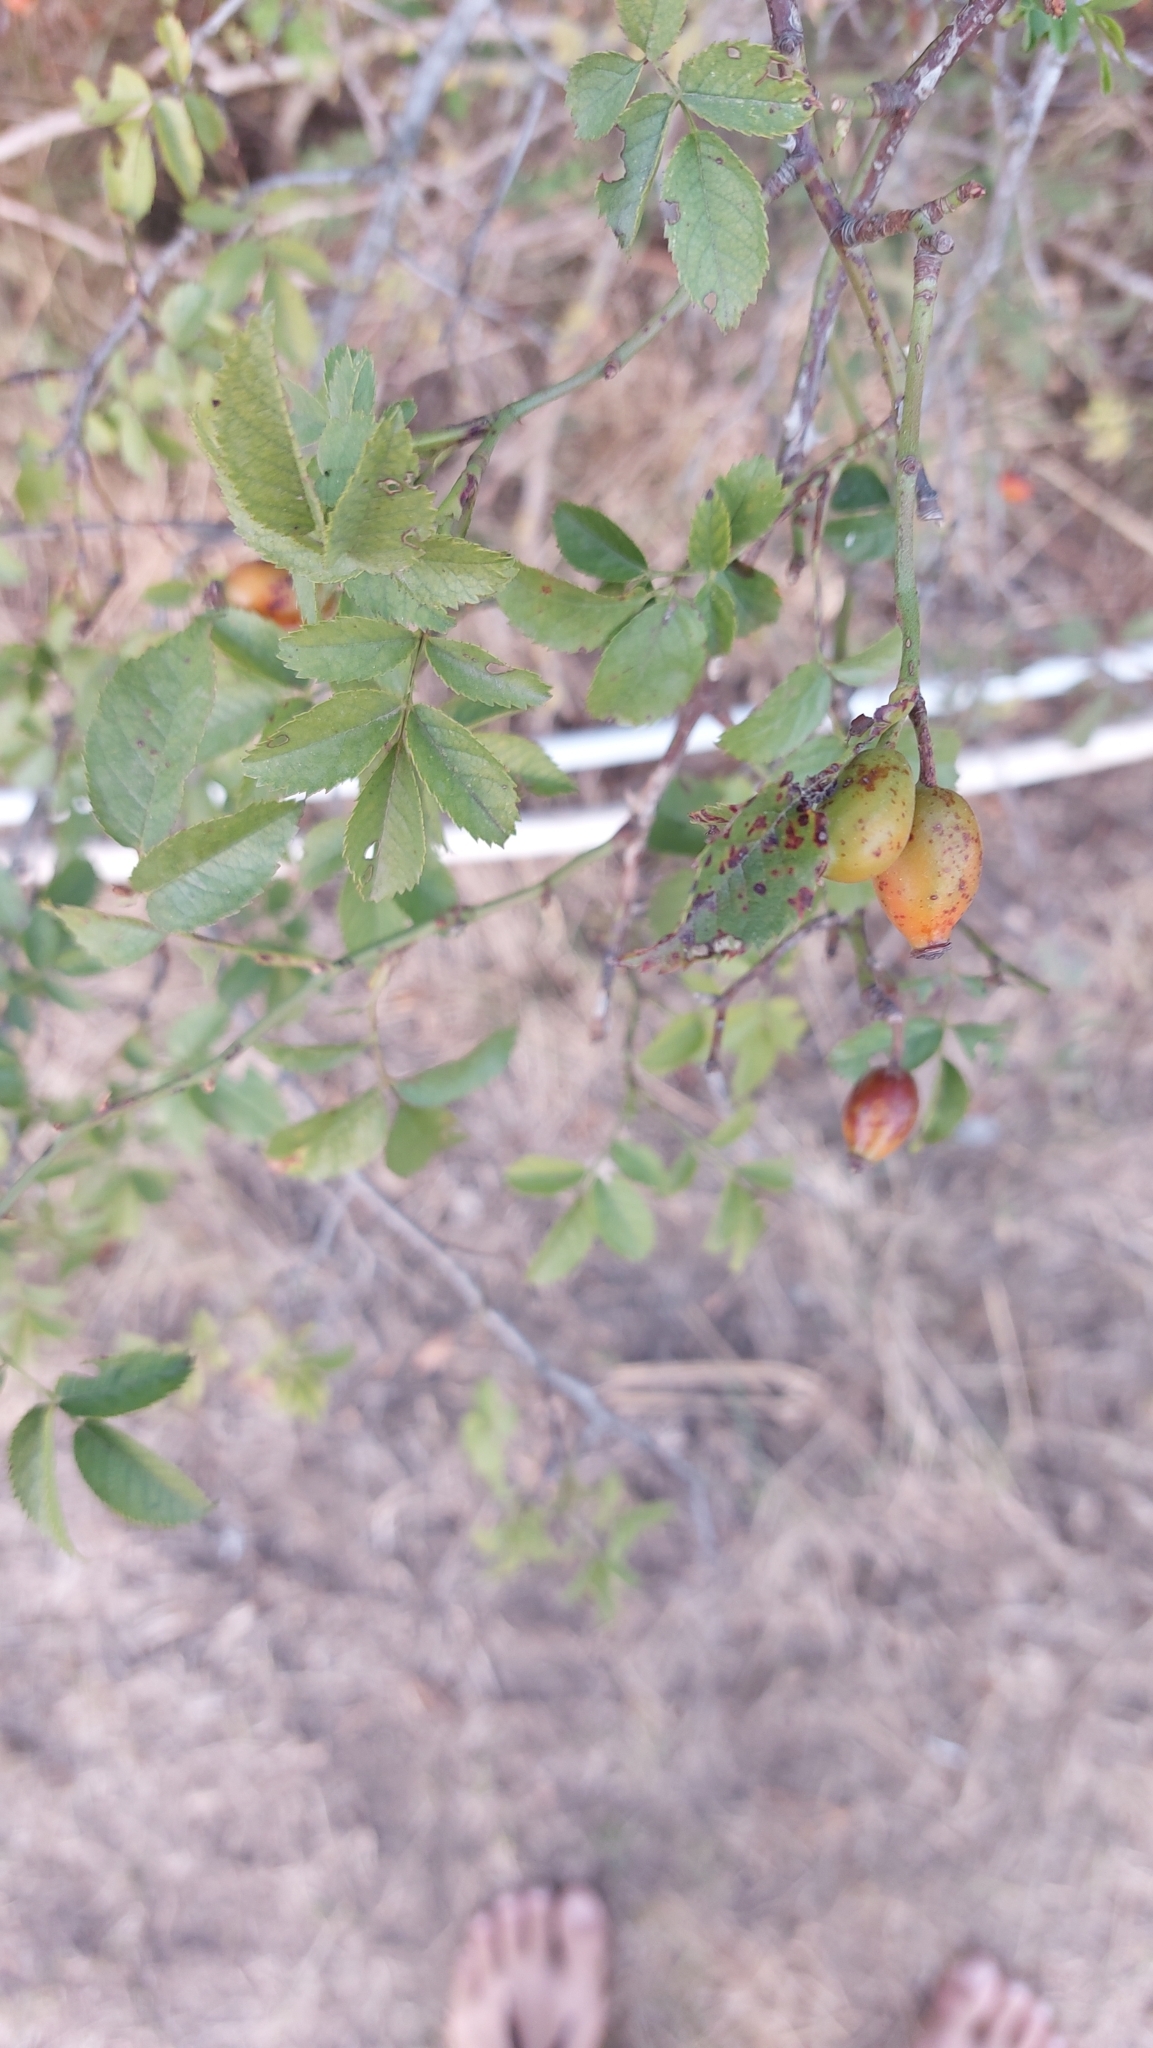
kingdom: Plantae
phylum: Tracheophyta
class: Magnoliopsida
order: Rosales
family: Rosaceae
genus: Rosa
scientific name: Rosa
